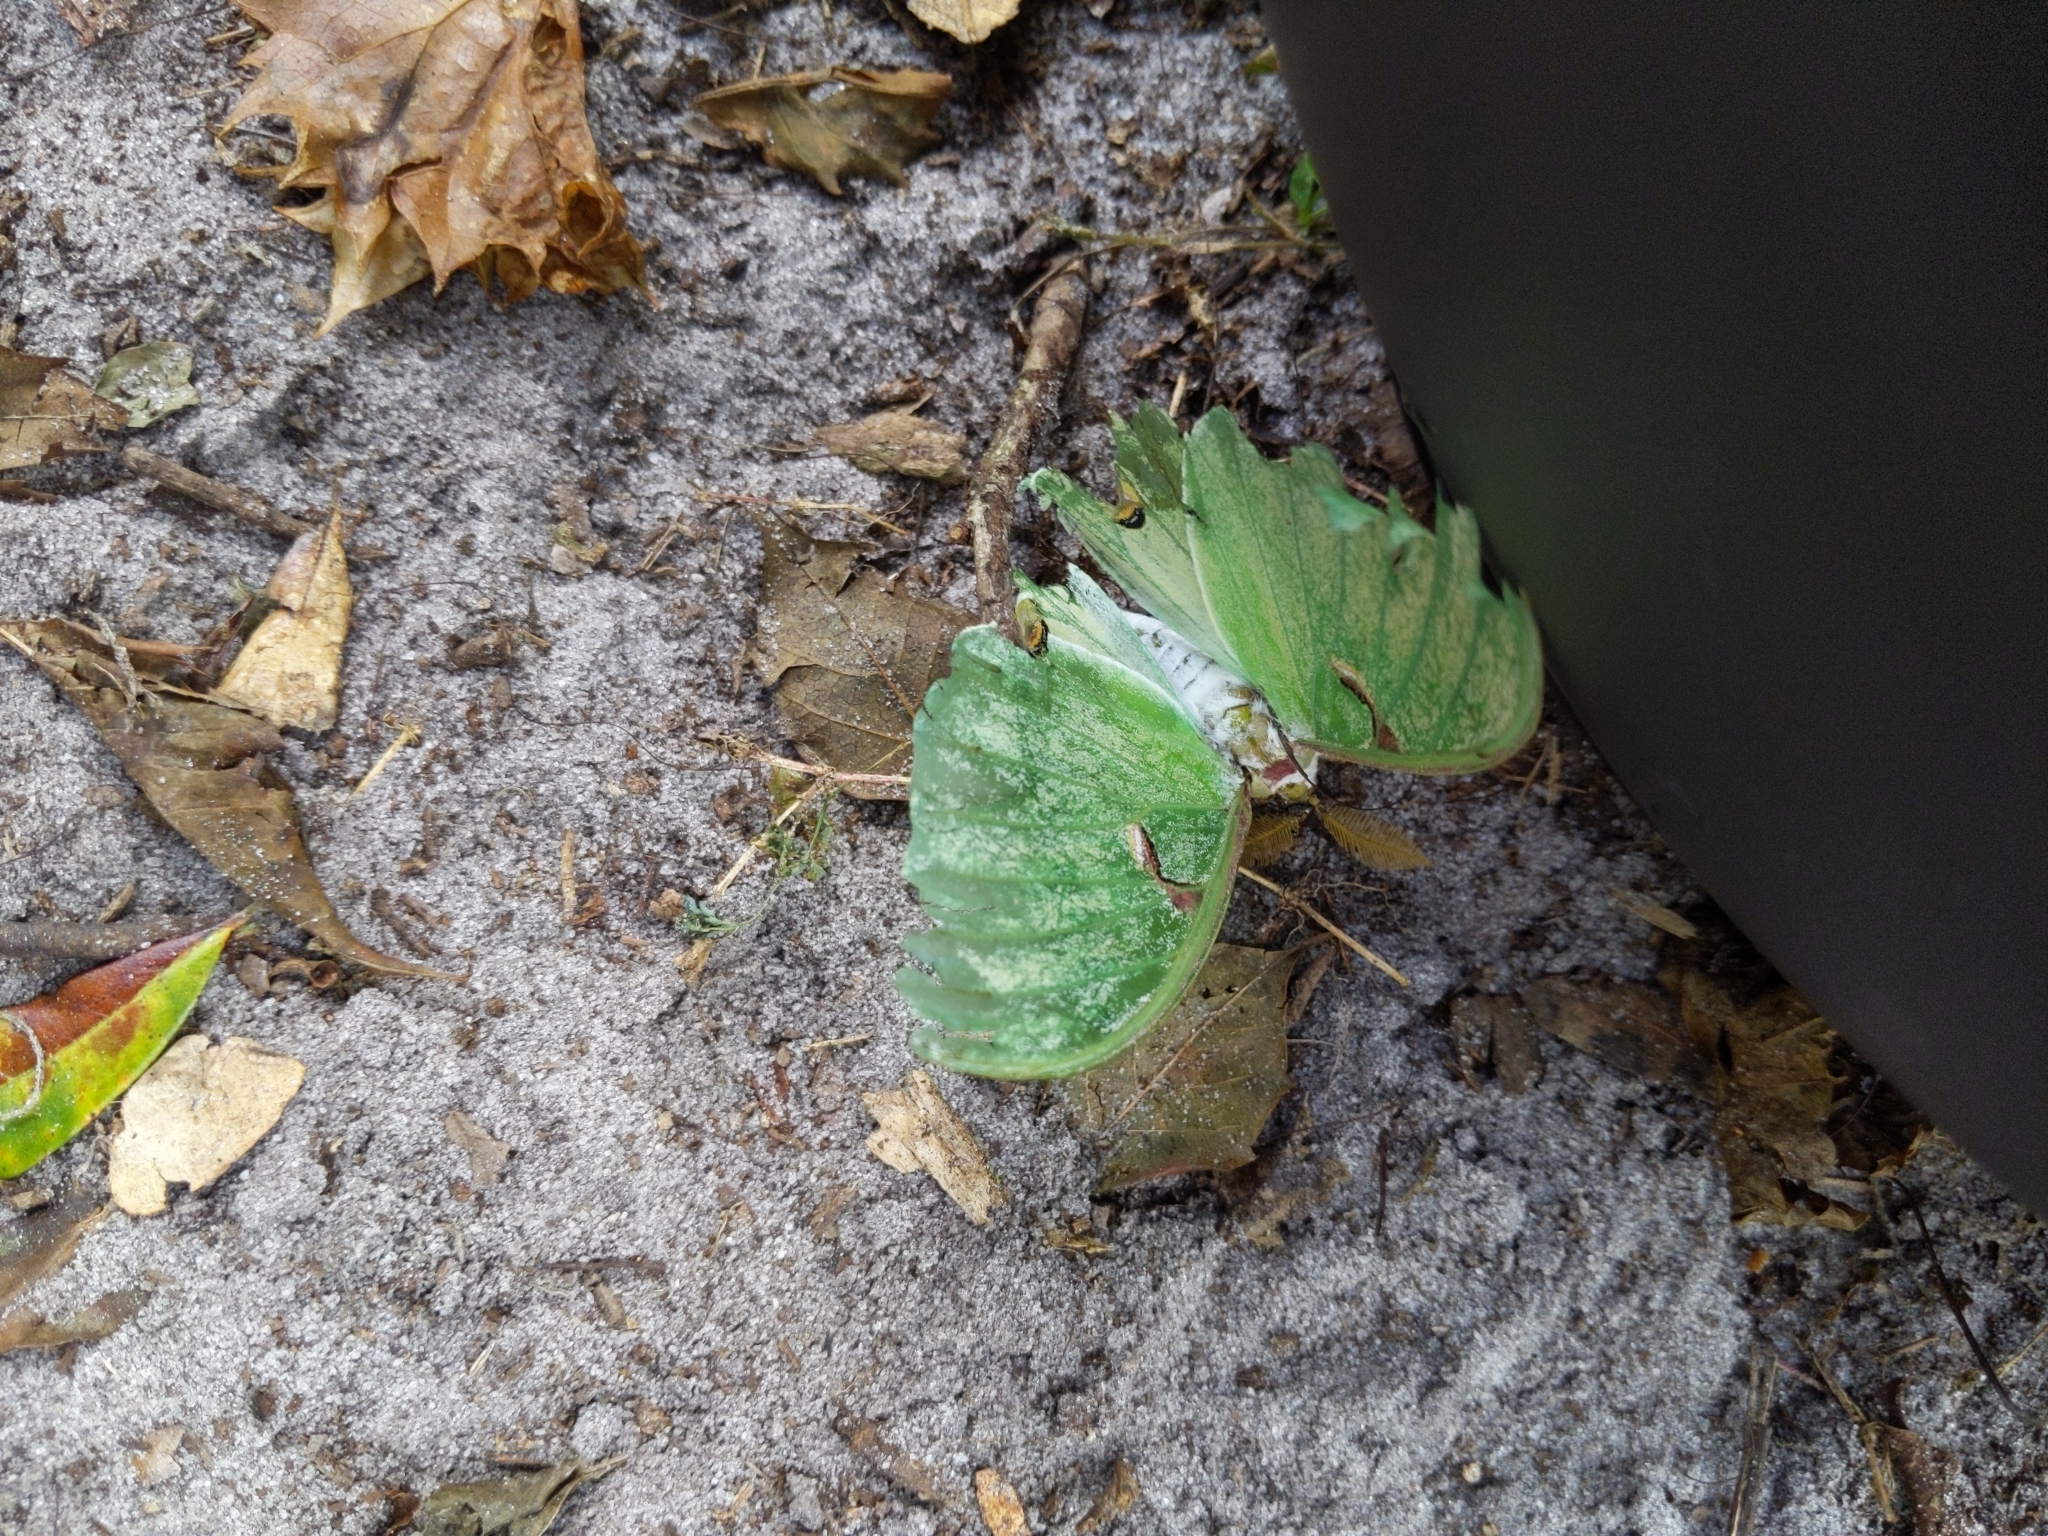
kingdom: Animalia
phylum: Arthropoda
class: Insecta
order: Lepidoptera
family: Saturniidae
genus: Actias
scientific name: Actias luna
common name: Luna moth
